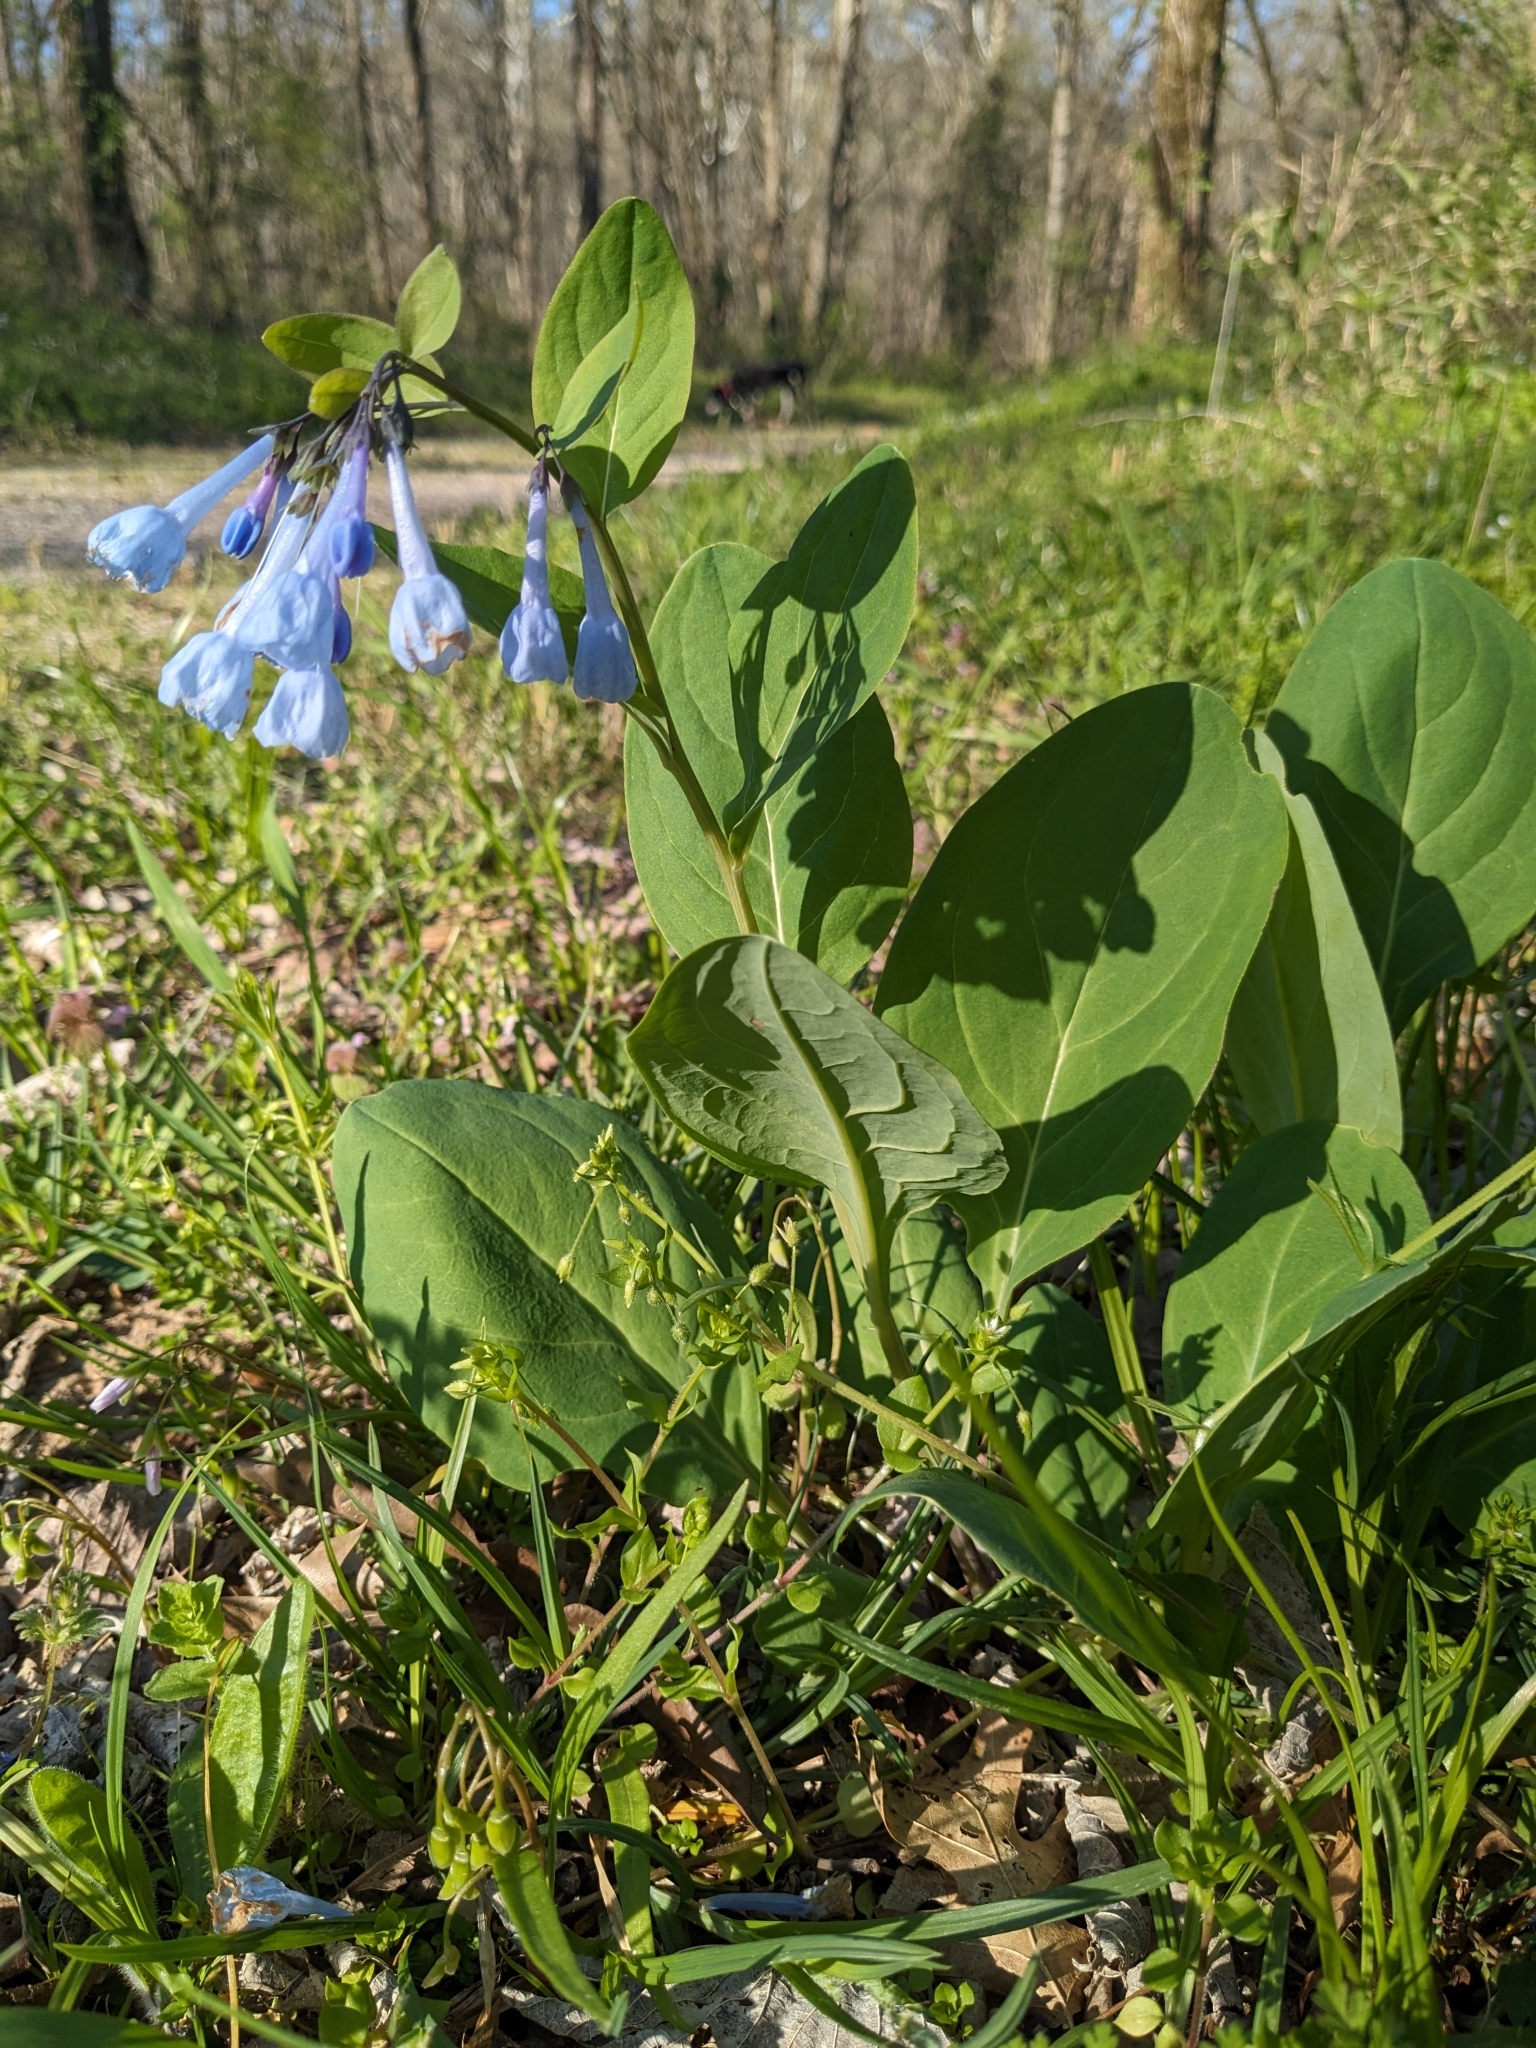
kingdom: Plantae
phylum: Tracheophyta
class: Magnoliopsida
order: Boraginales
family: Boraginaceae
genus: Mertensia
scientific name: Mertensia virginica
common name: Virginia bluebells
